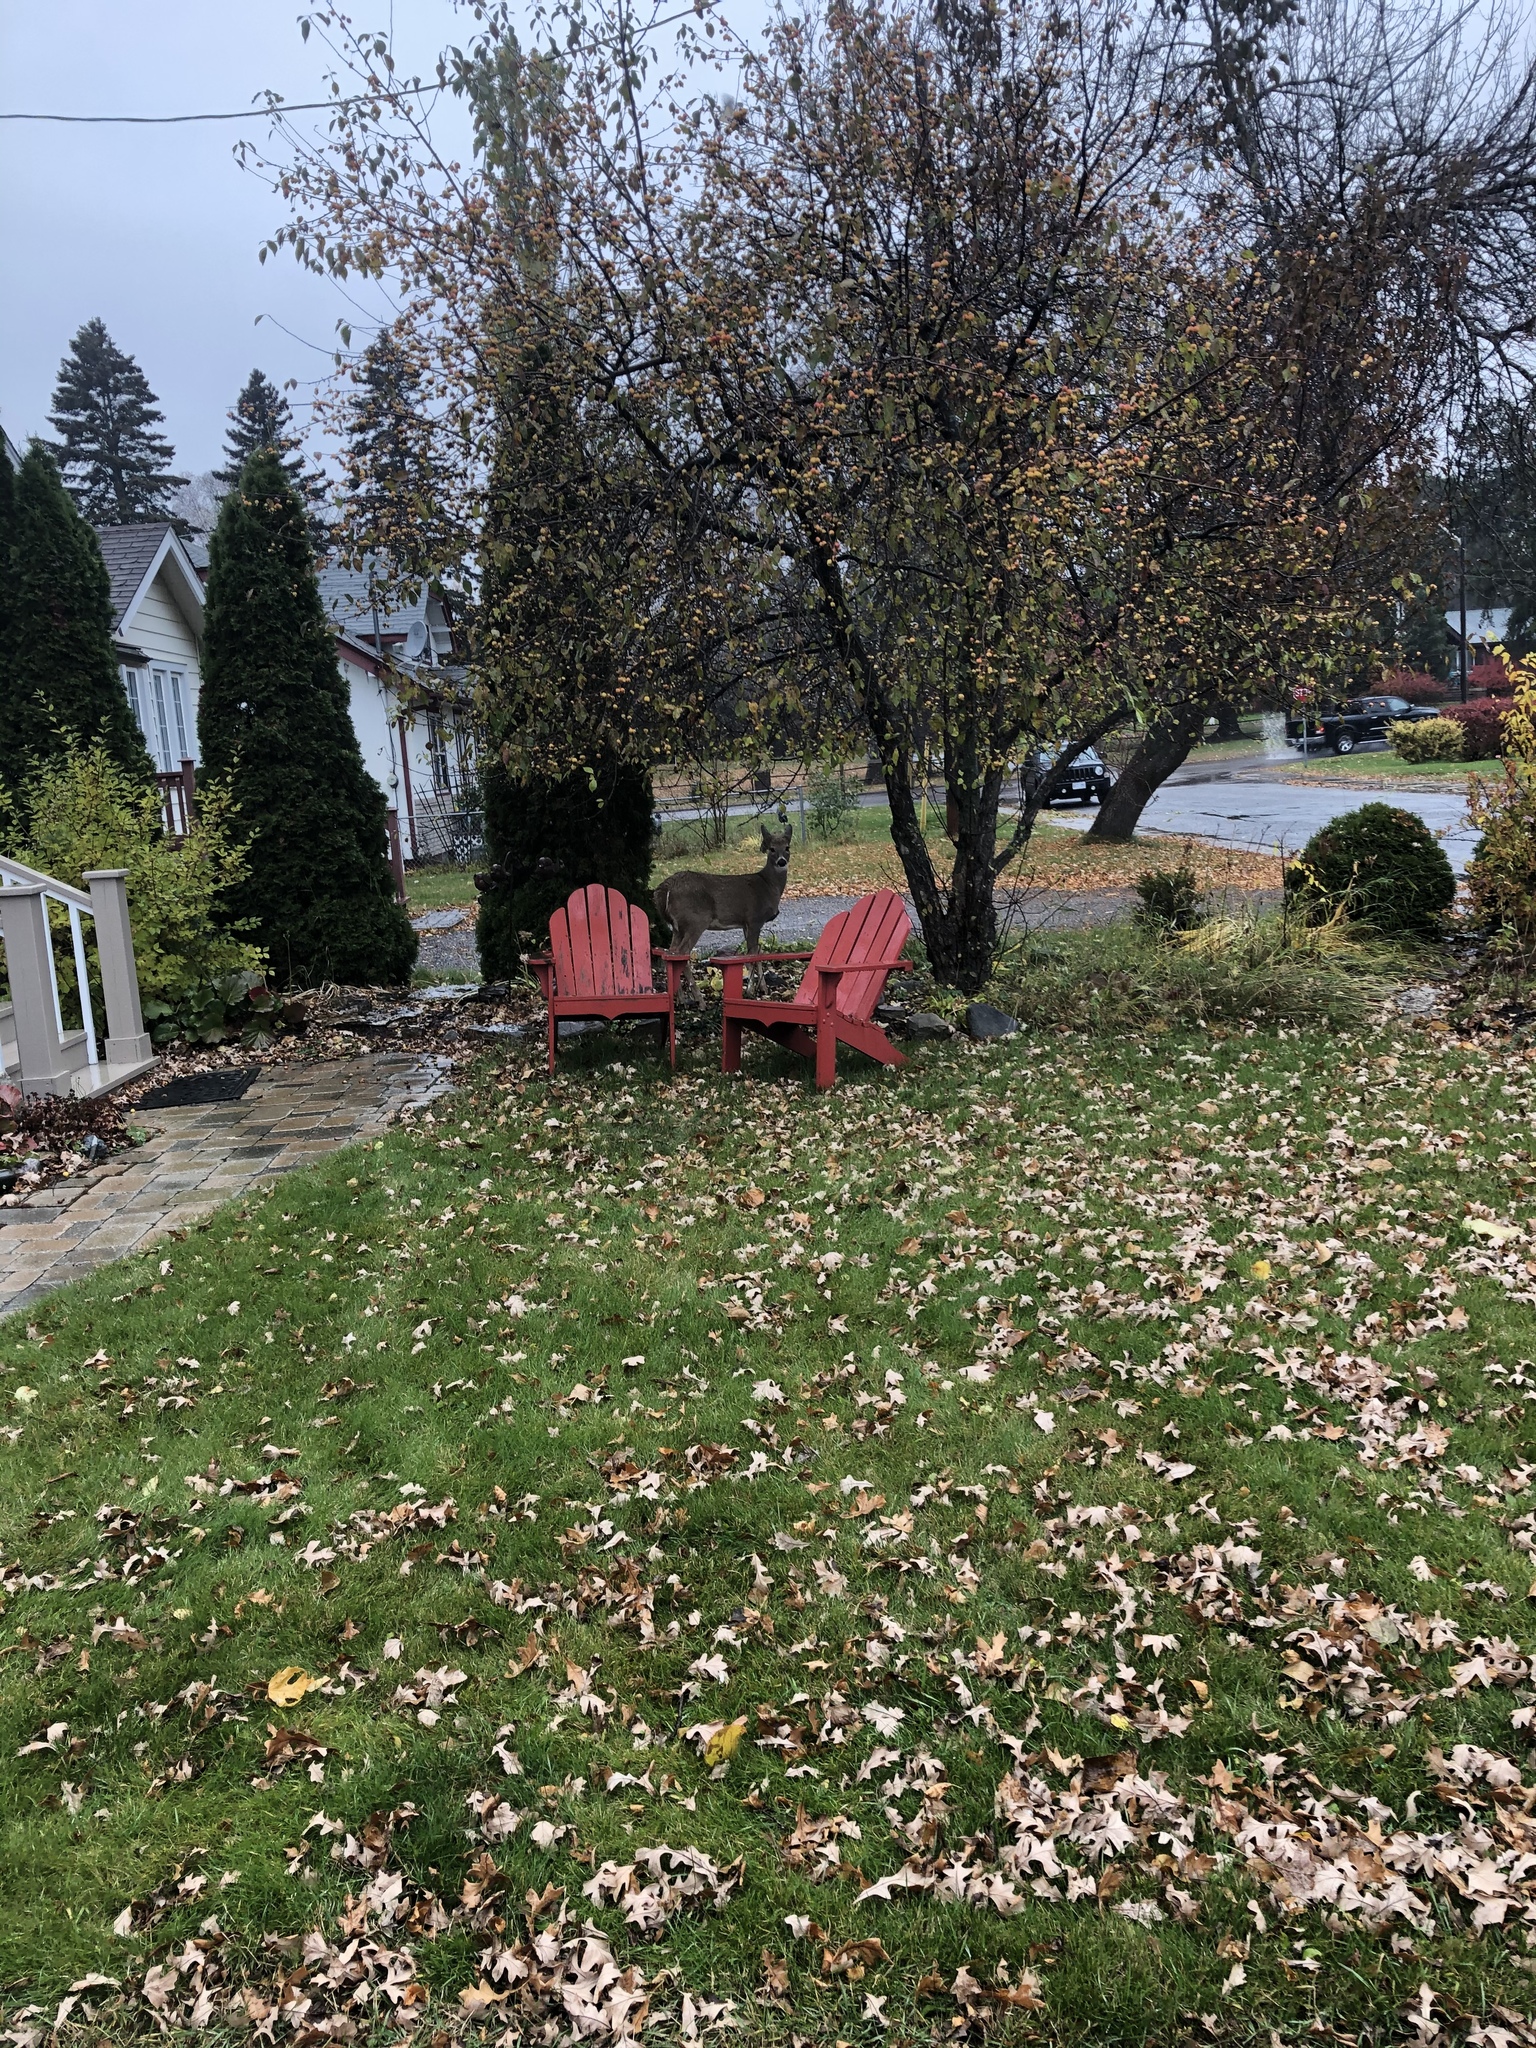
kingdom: Animalia
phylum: Chordata
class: Mammalia
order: Artiodactyla
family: Cervidae
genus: Odocoileus
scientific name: Odocoileus virginianus
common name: White-tailed deer
